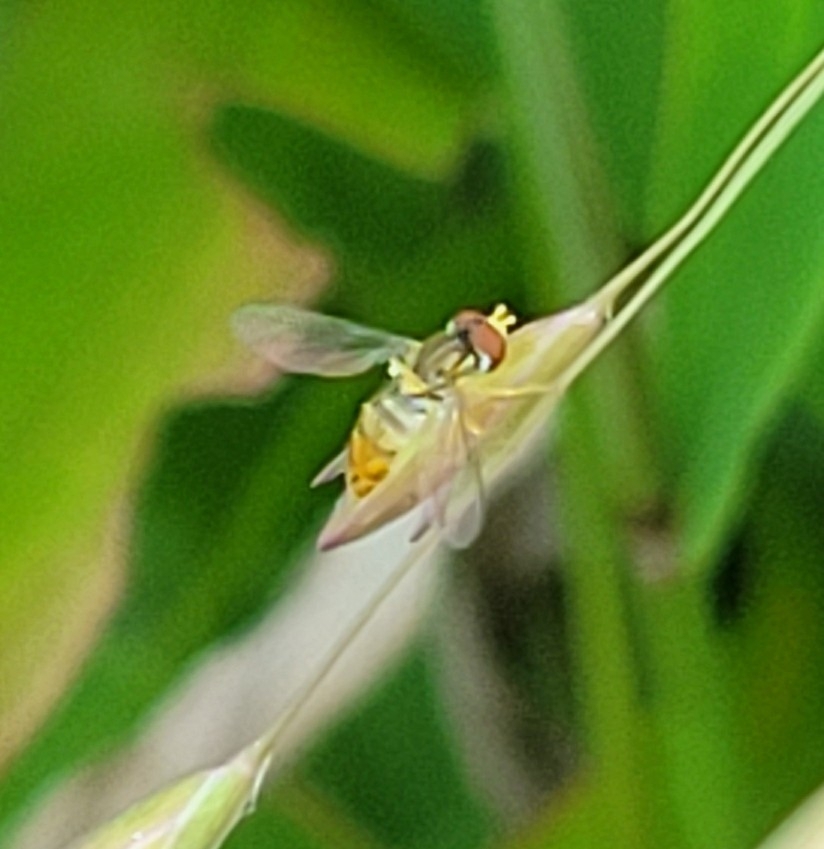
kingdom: Animalia
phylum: Arthropoda
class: Insecta
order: Diptera
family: Syrphidae
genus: Toxomerus
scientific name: Toxomerus marginatus
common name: Syrphid fly
